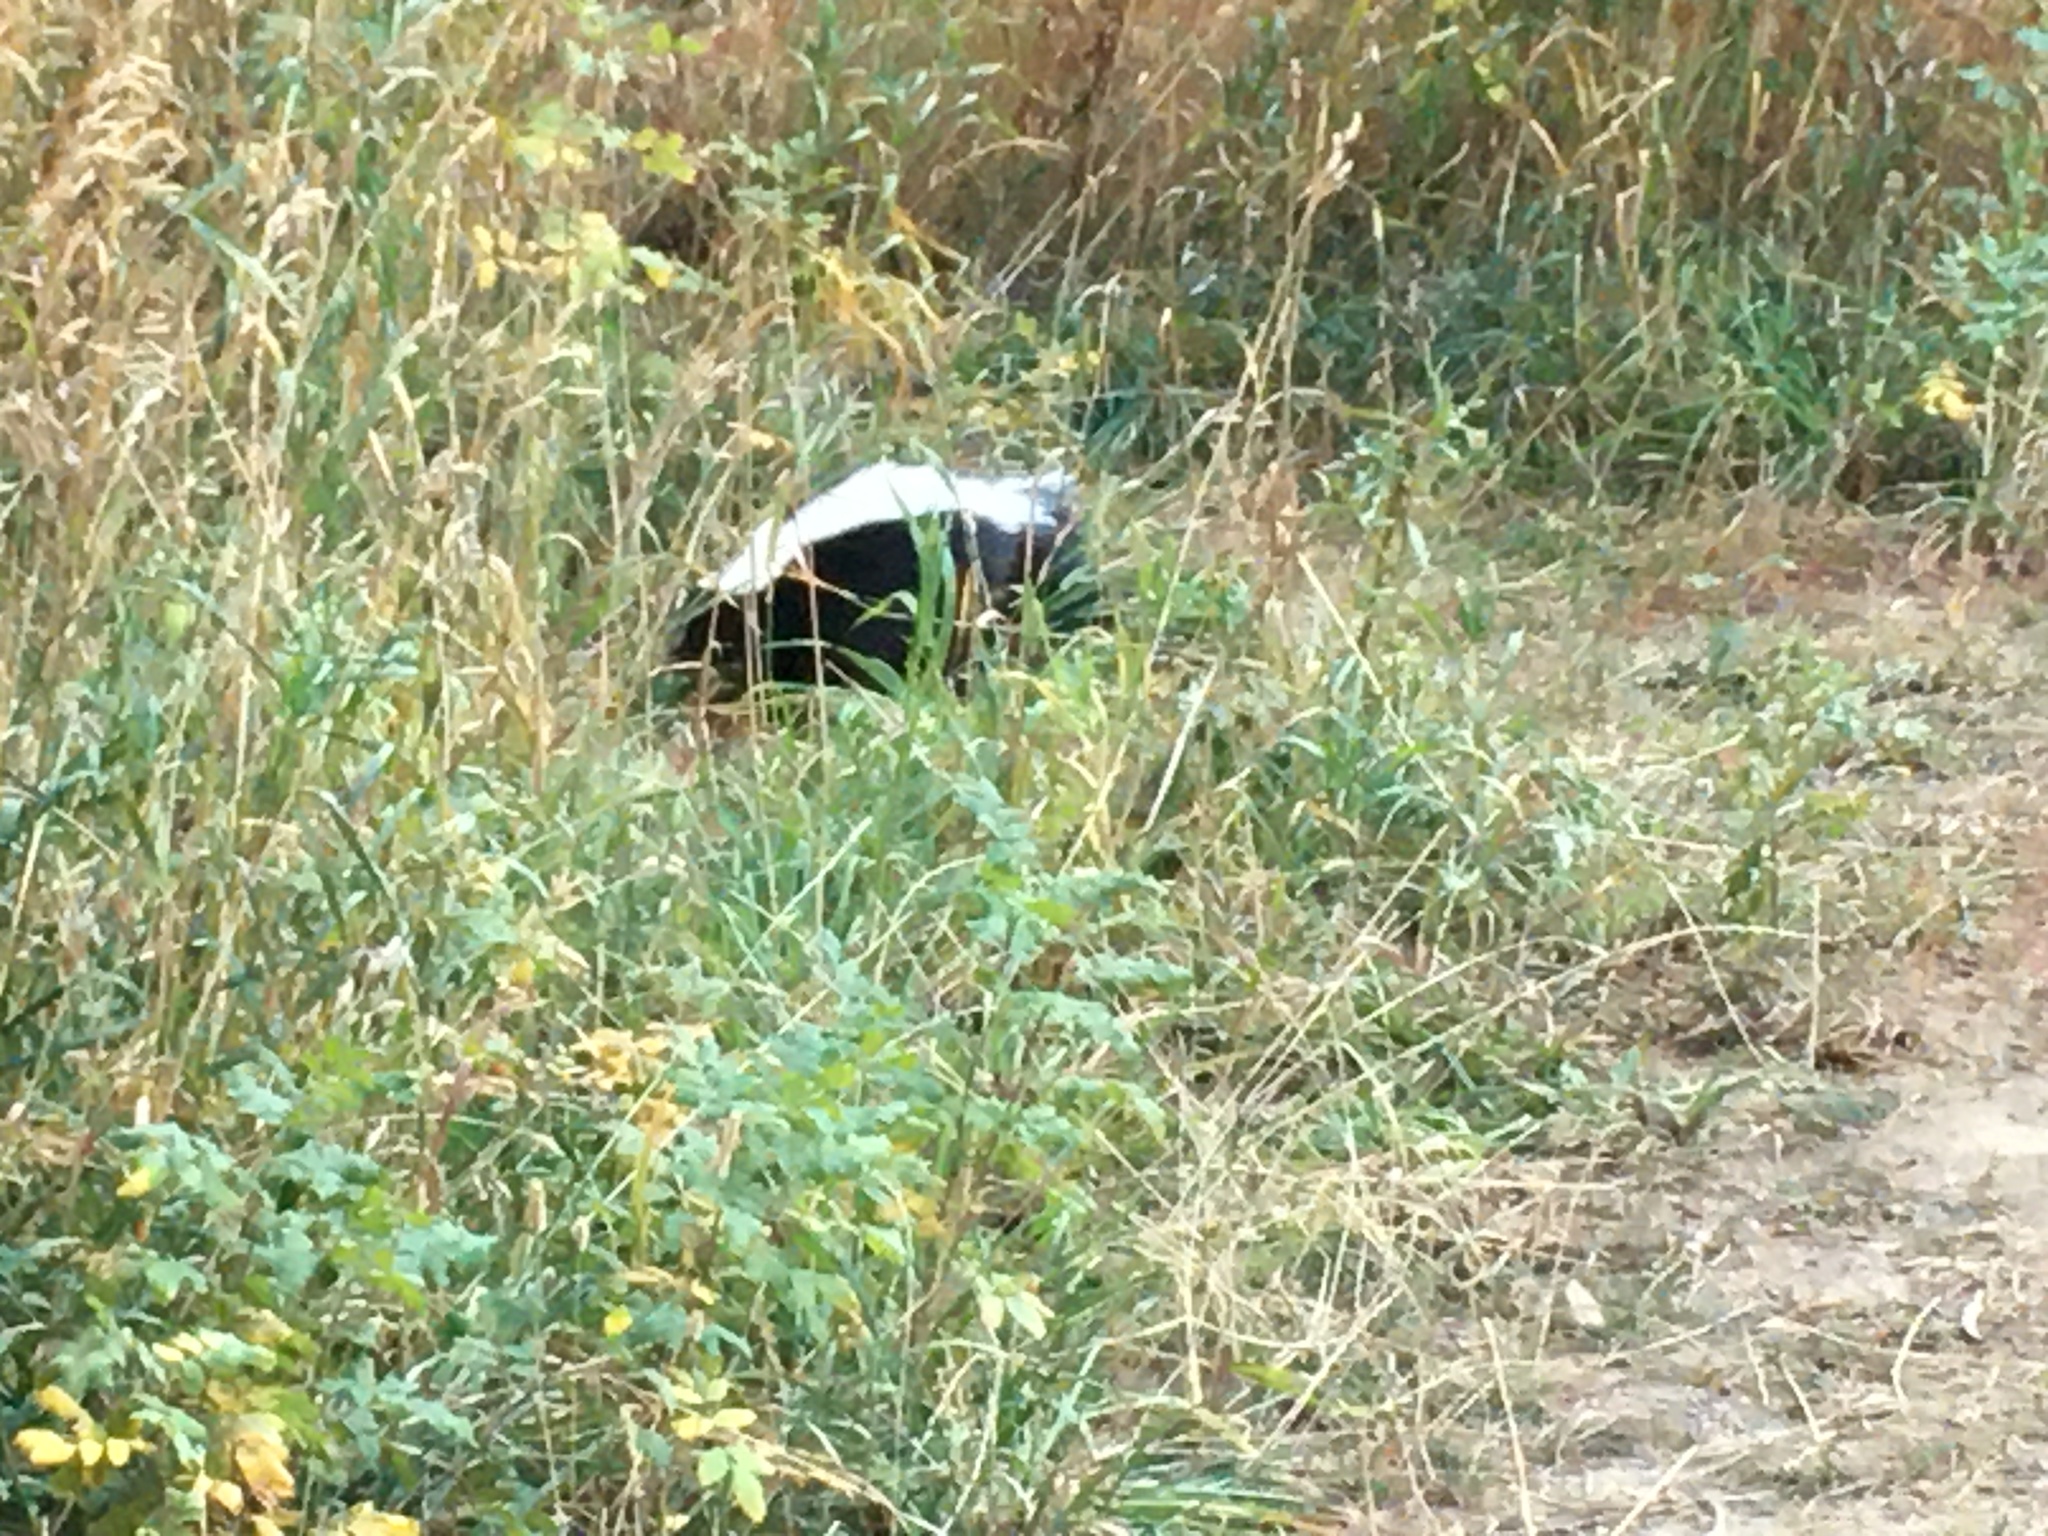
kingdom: Animalia
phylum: Chordata
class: Mammalia
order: Carnivora
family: Mephitidae
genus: Mephitis
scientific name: Mephitis mephitis
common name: Striped skunk
